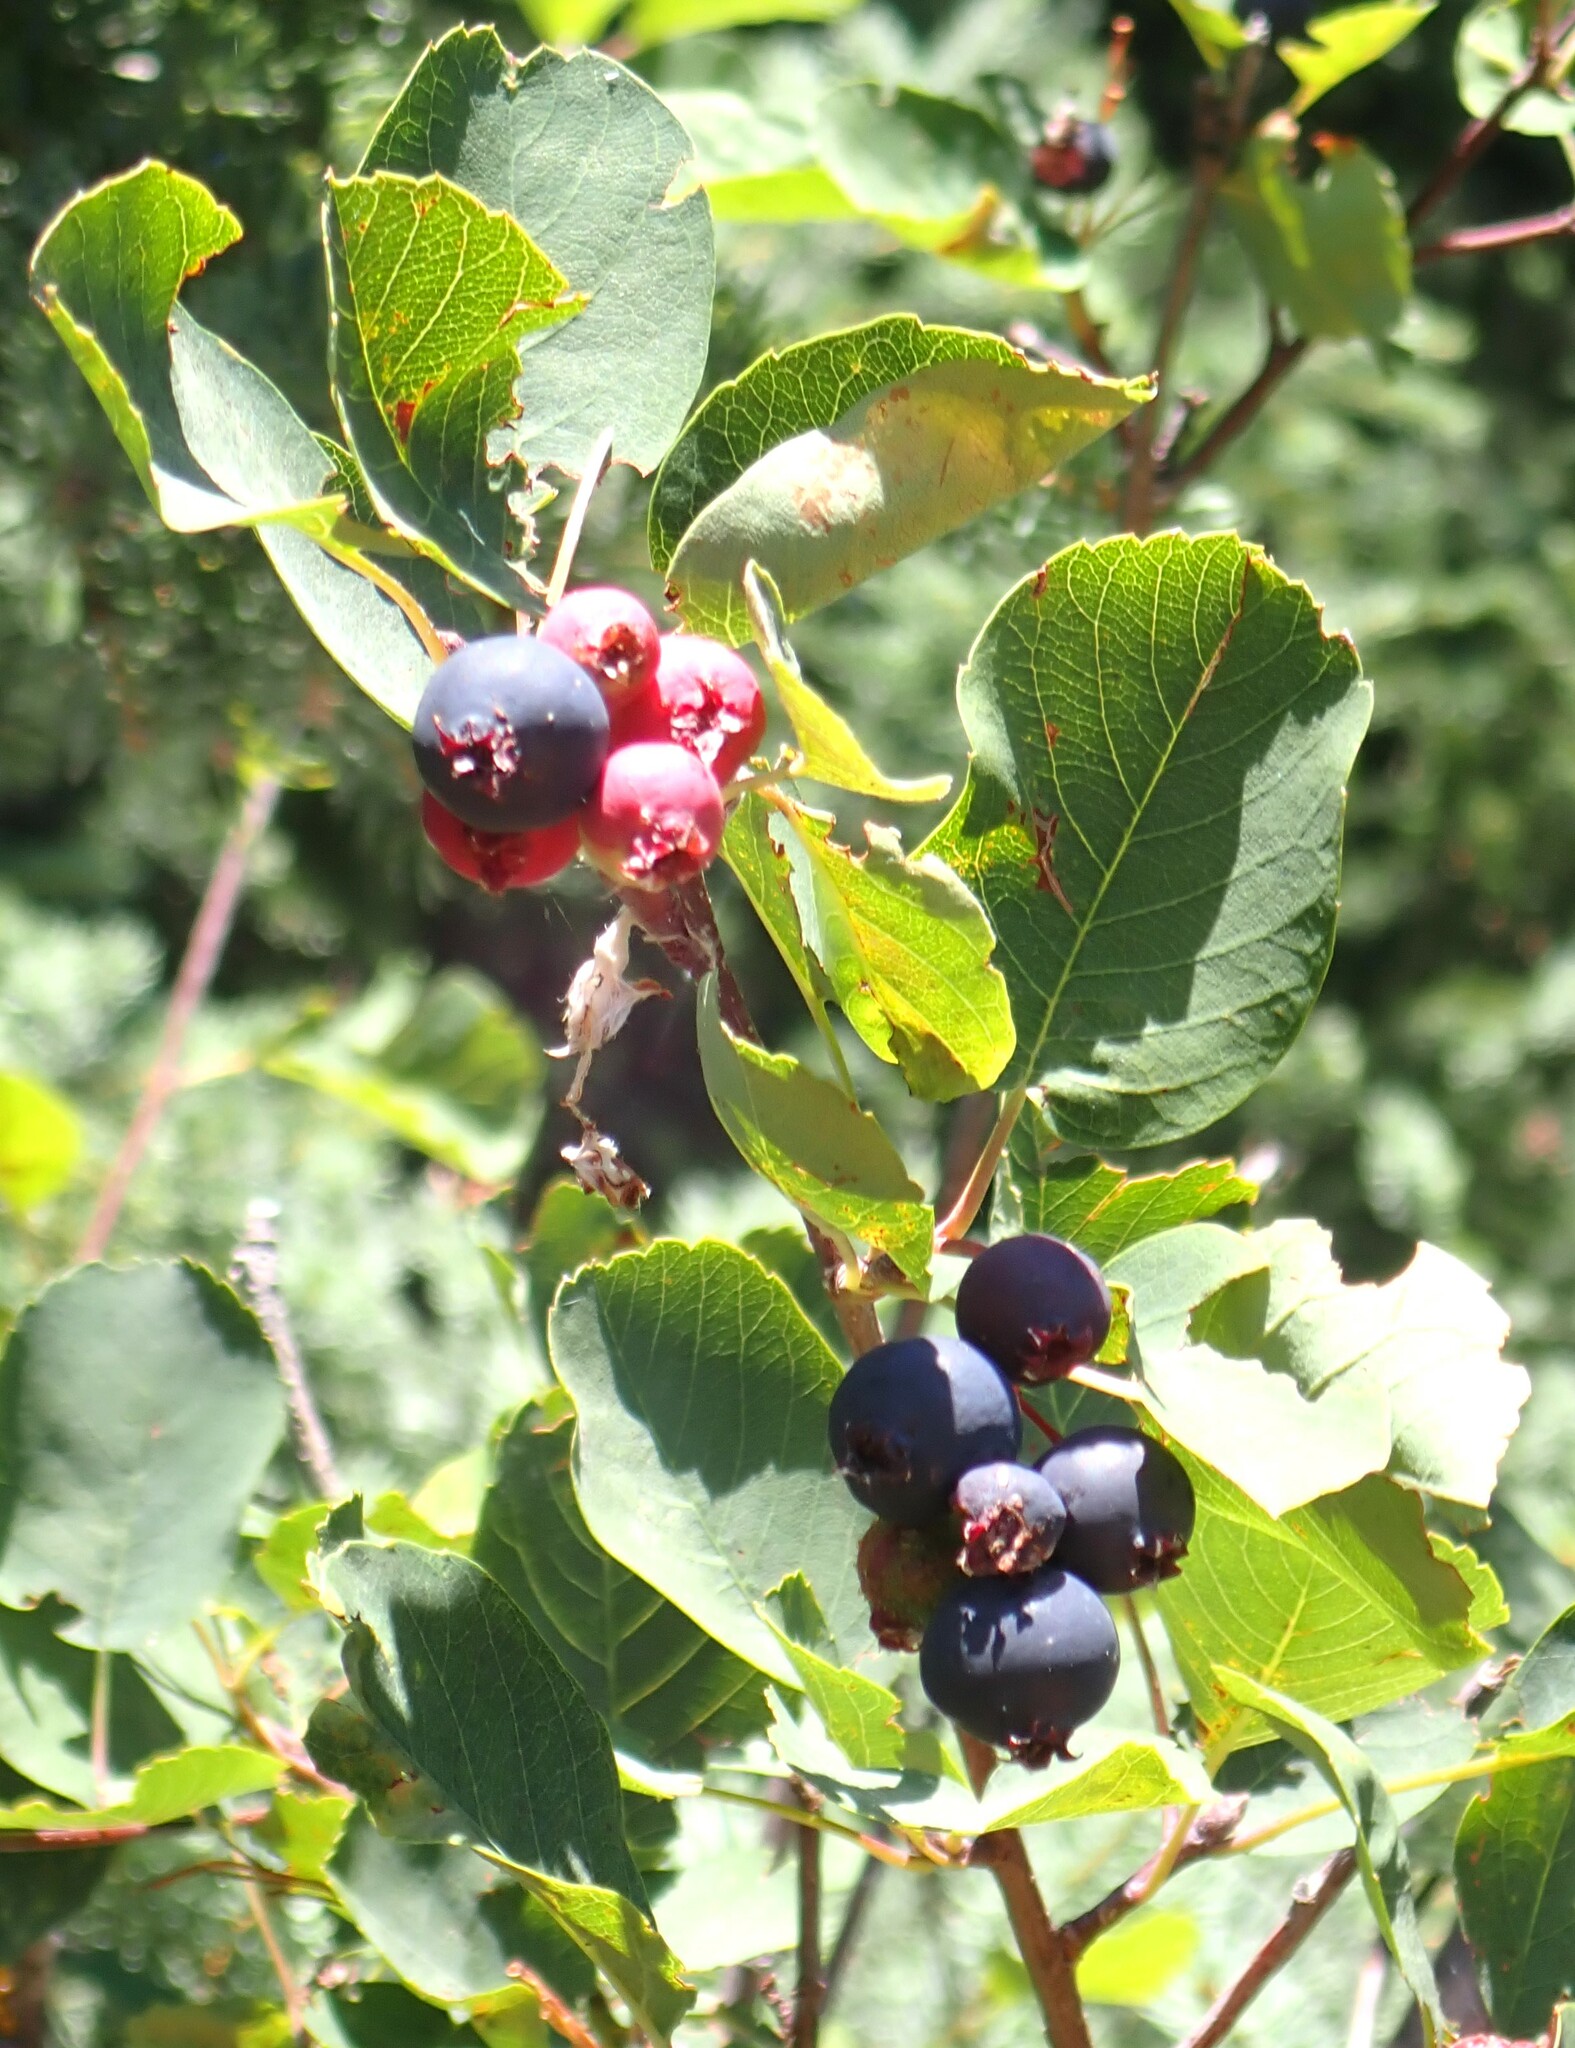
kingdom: Plantae
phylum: Tracheophyta
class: Magnoliopsida
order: Rosales
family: Rosaceae
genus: Amelanchier
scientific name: Amelanchier alnifolia
